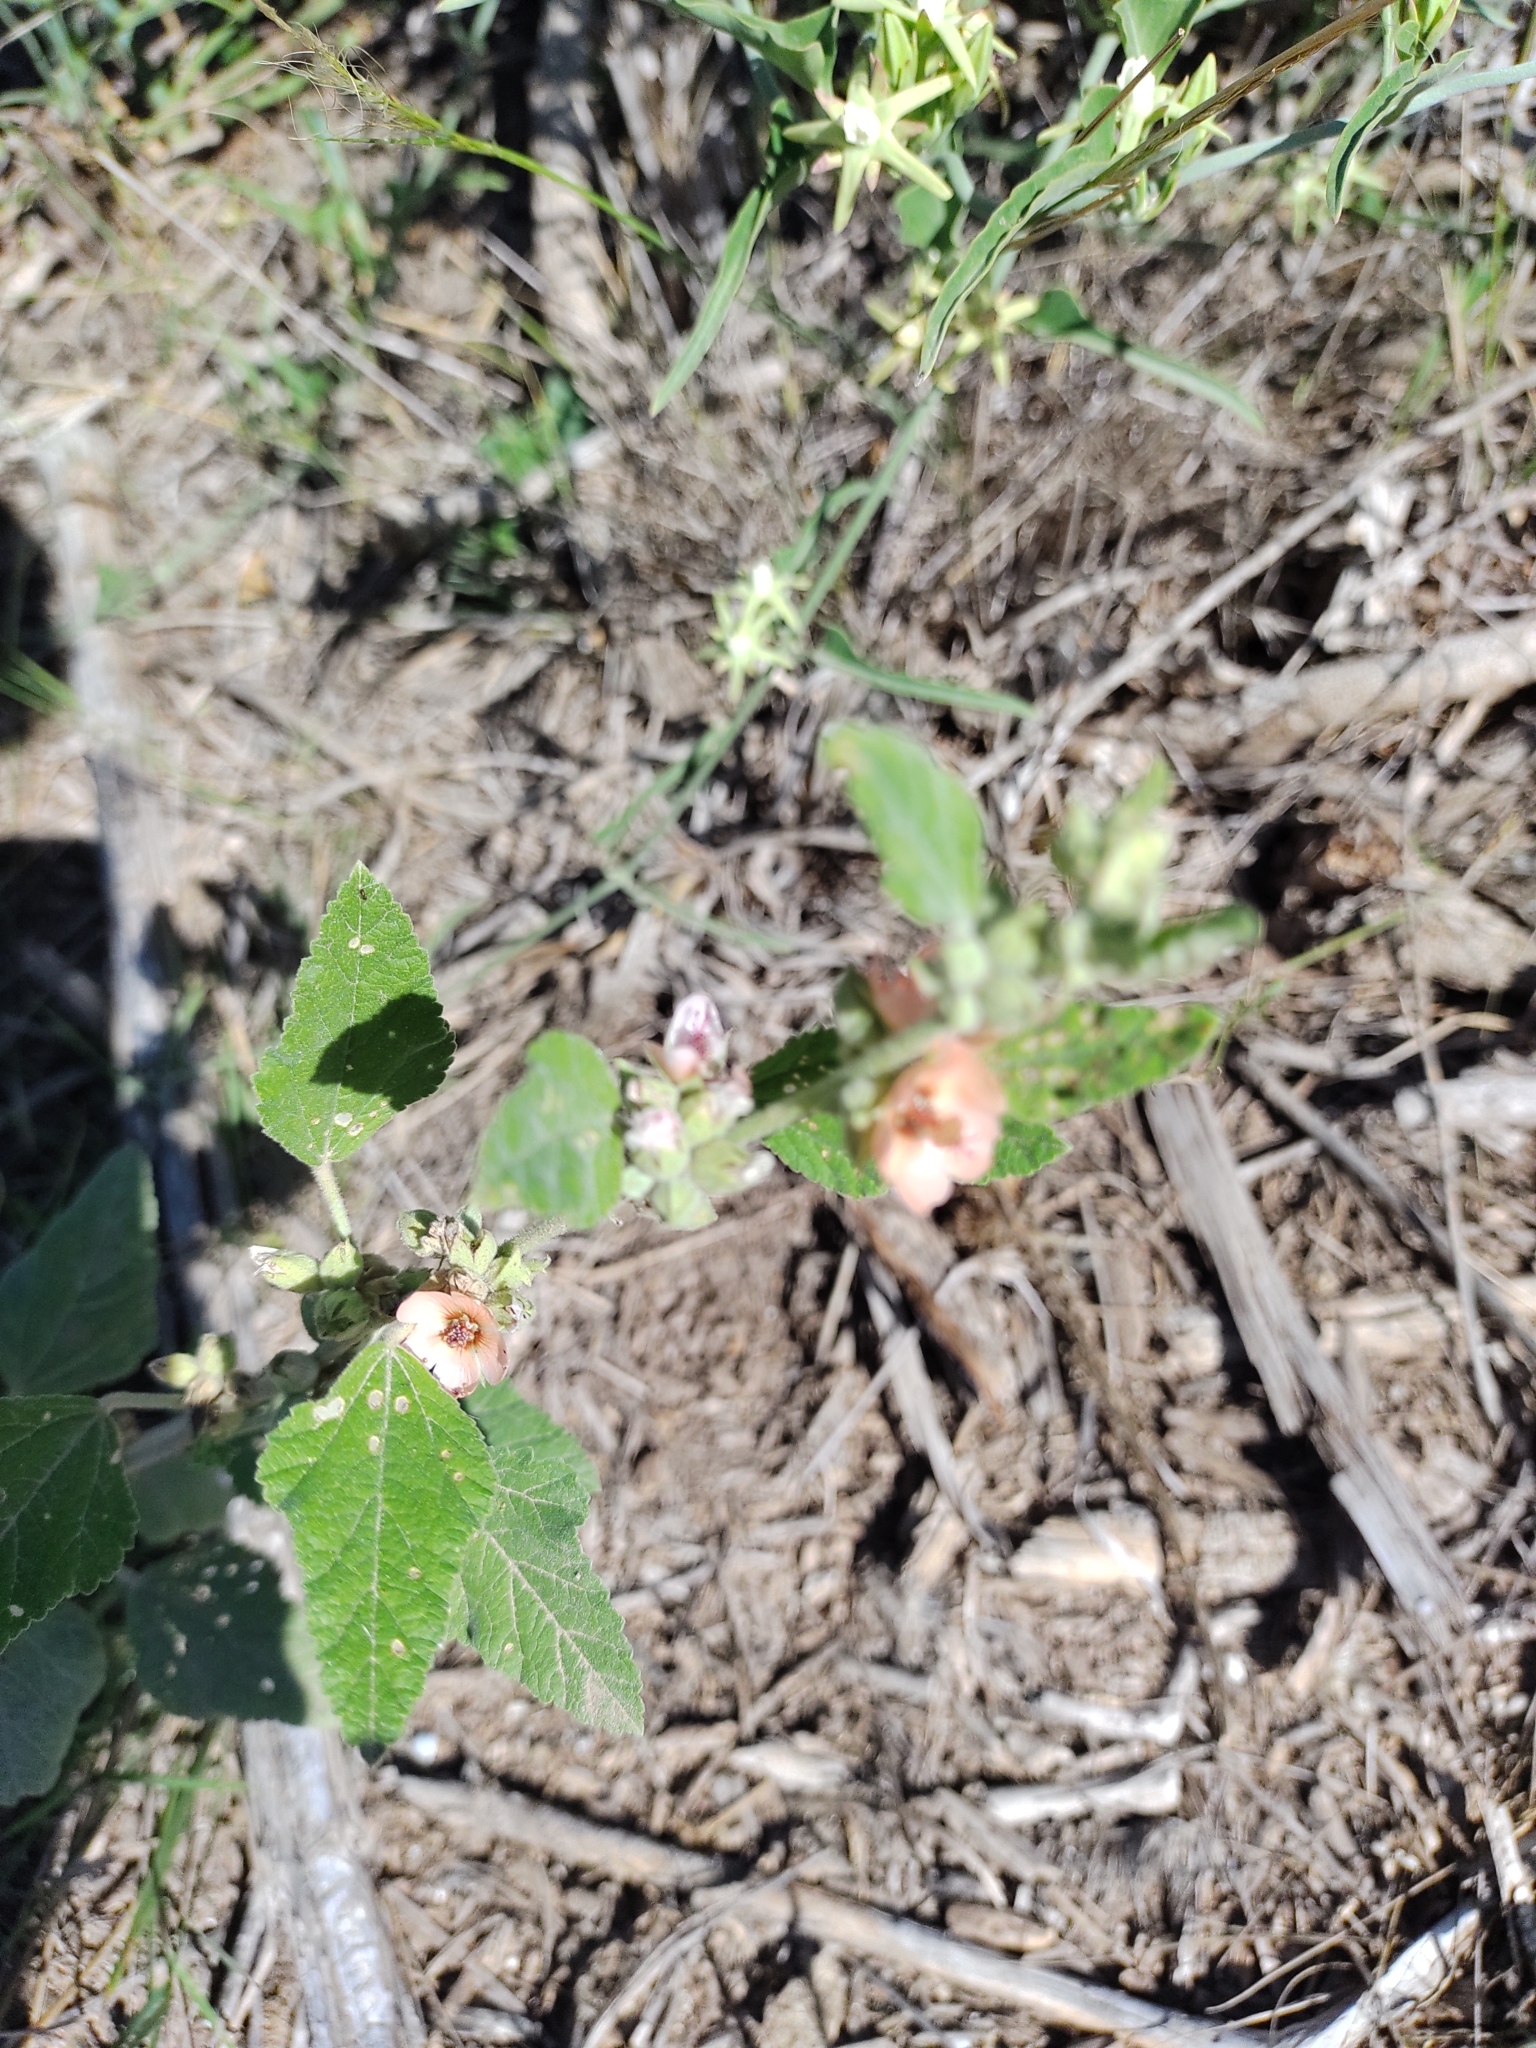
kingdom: Plantae
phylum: Tracheophyta
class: Magnoliopsida
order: Malvales
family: Malvaceae
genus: Sphaeralcea
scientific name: Sphaeralcea bonariensis
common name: Latin globemallow
